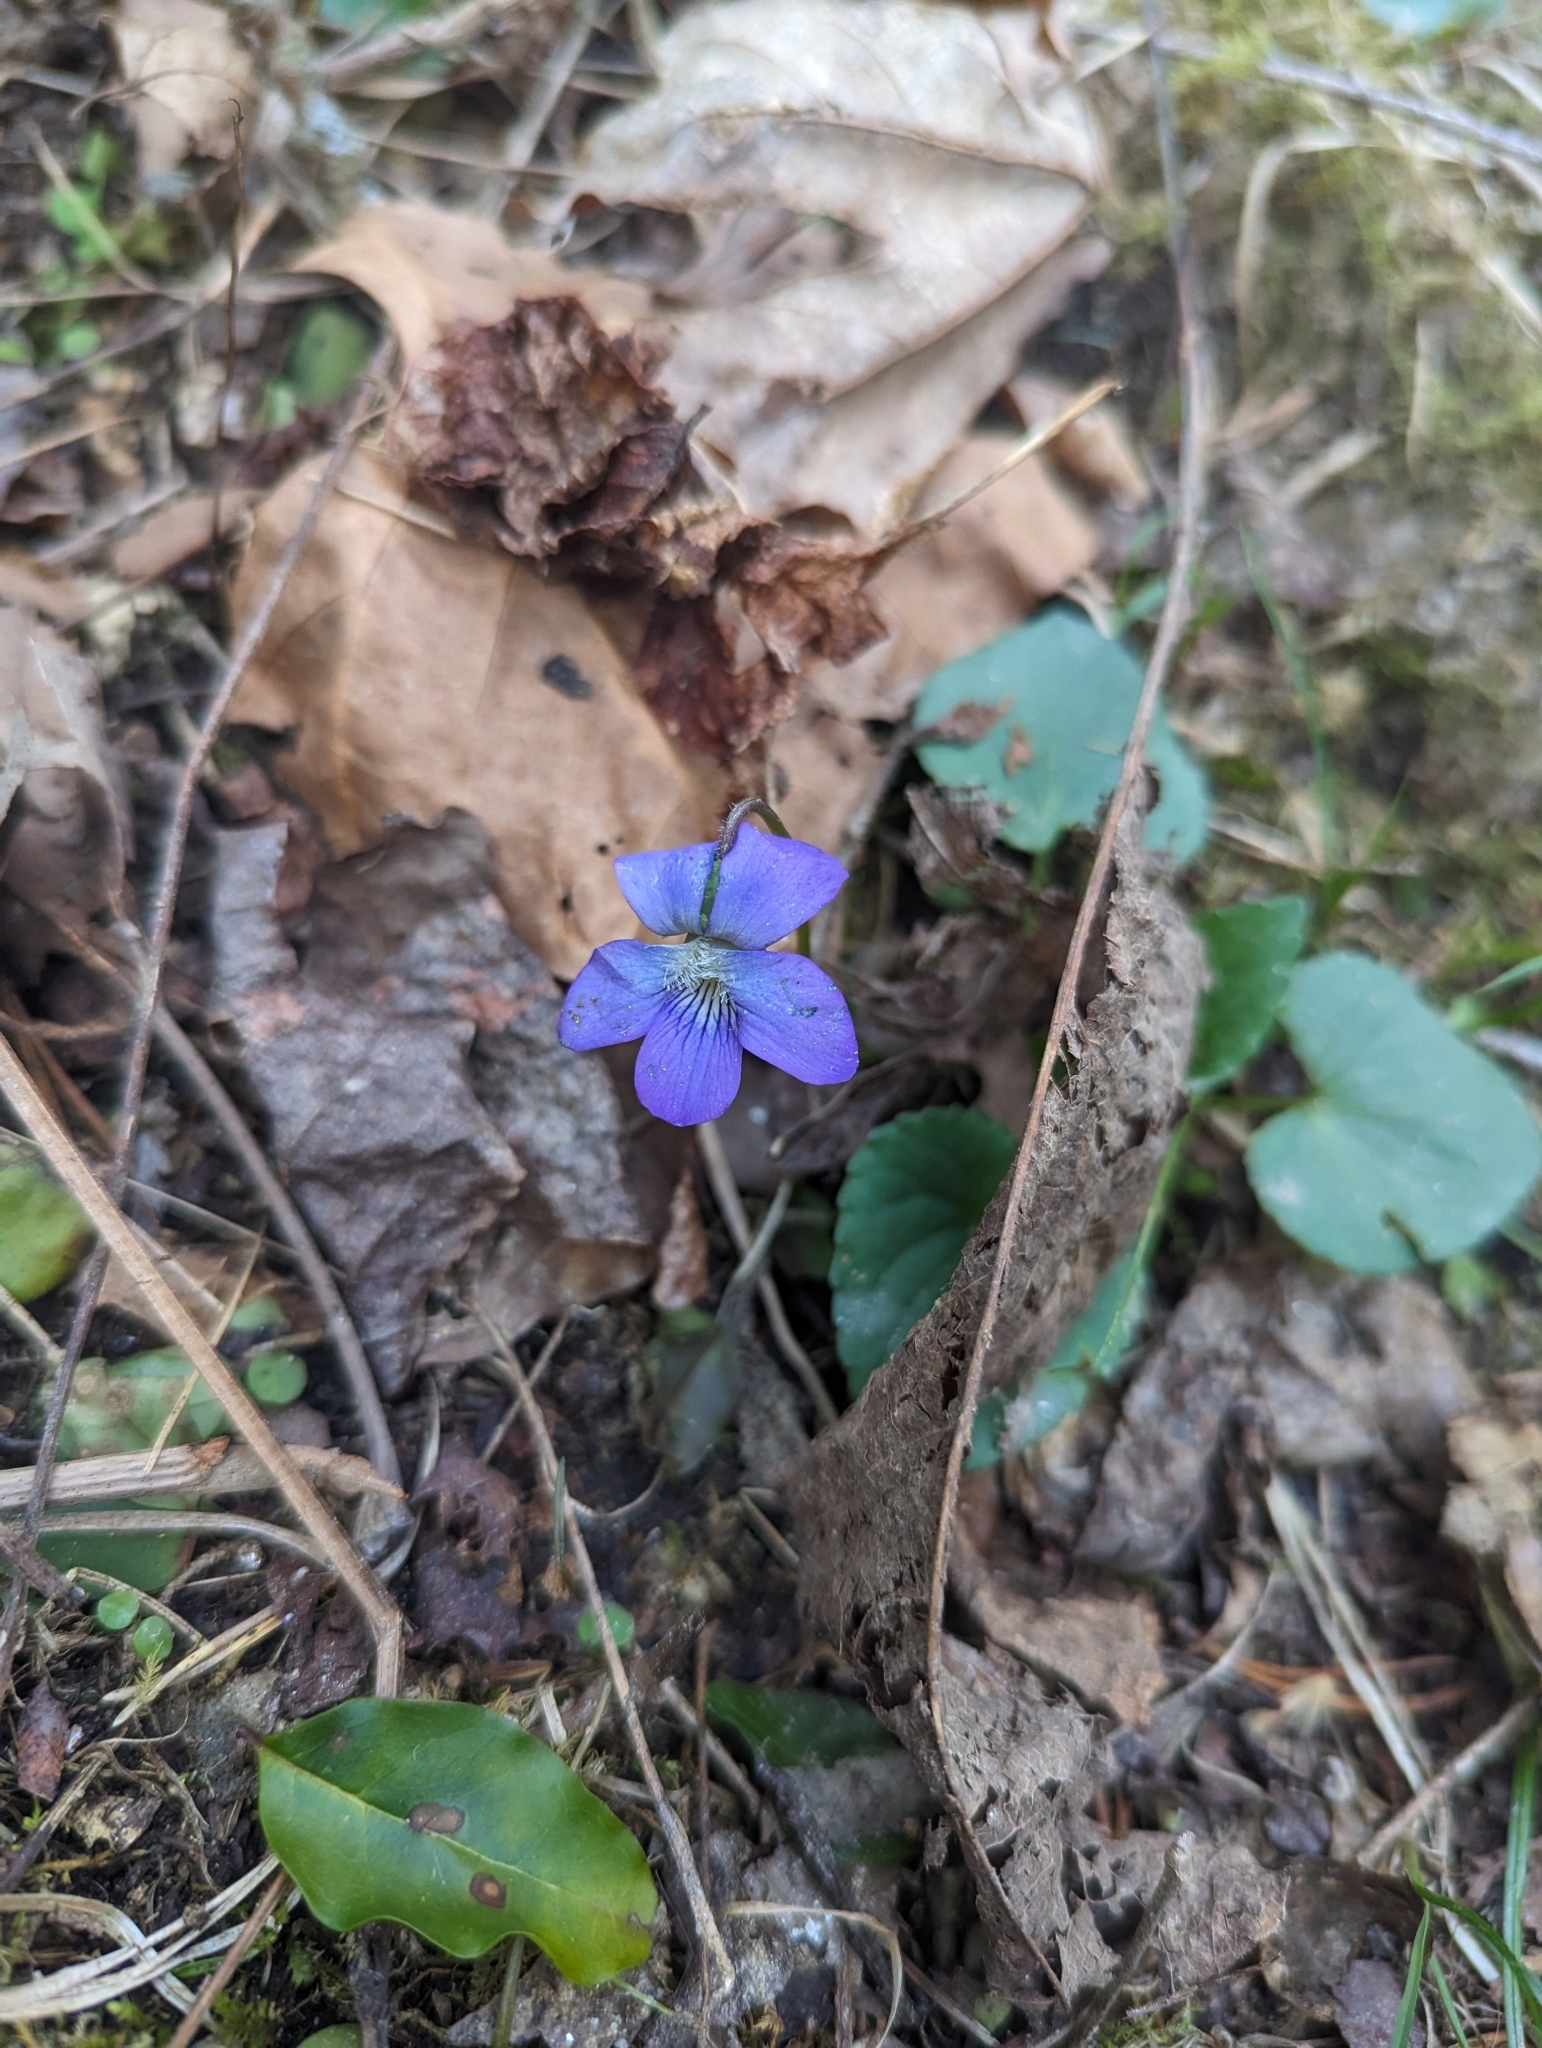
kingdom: Plantae
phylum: Tracheophyta
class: Magnoliopsida
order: Malpighiales
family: Violaceae
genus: Viola
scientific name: Viola sororia
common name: Dooryard violet
